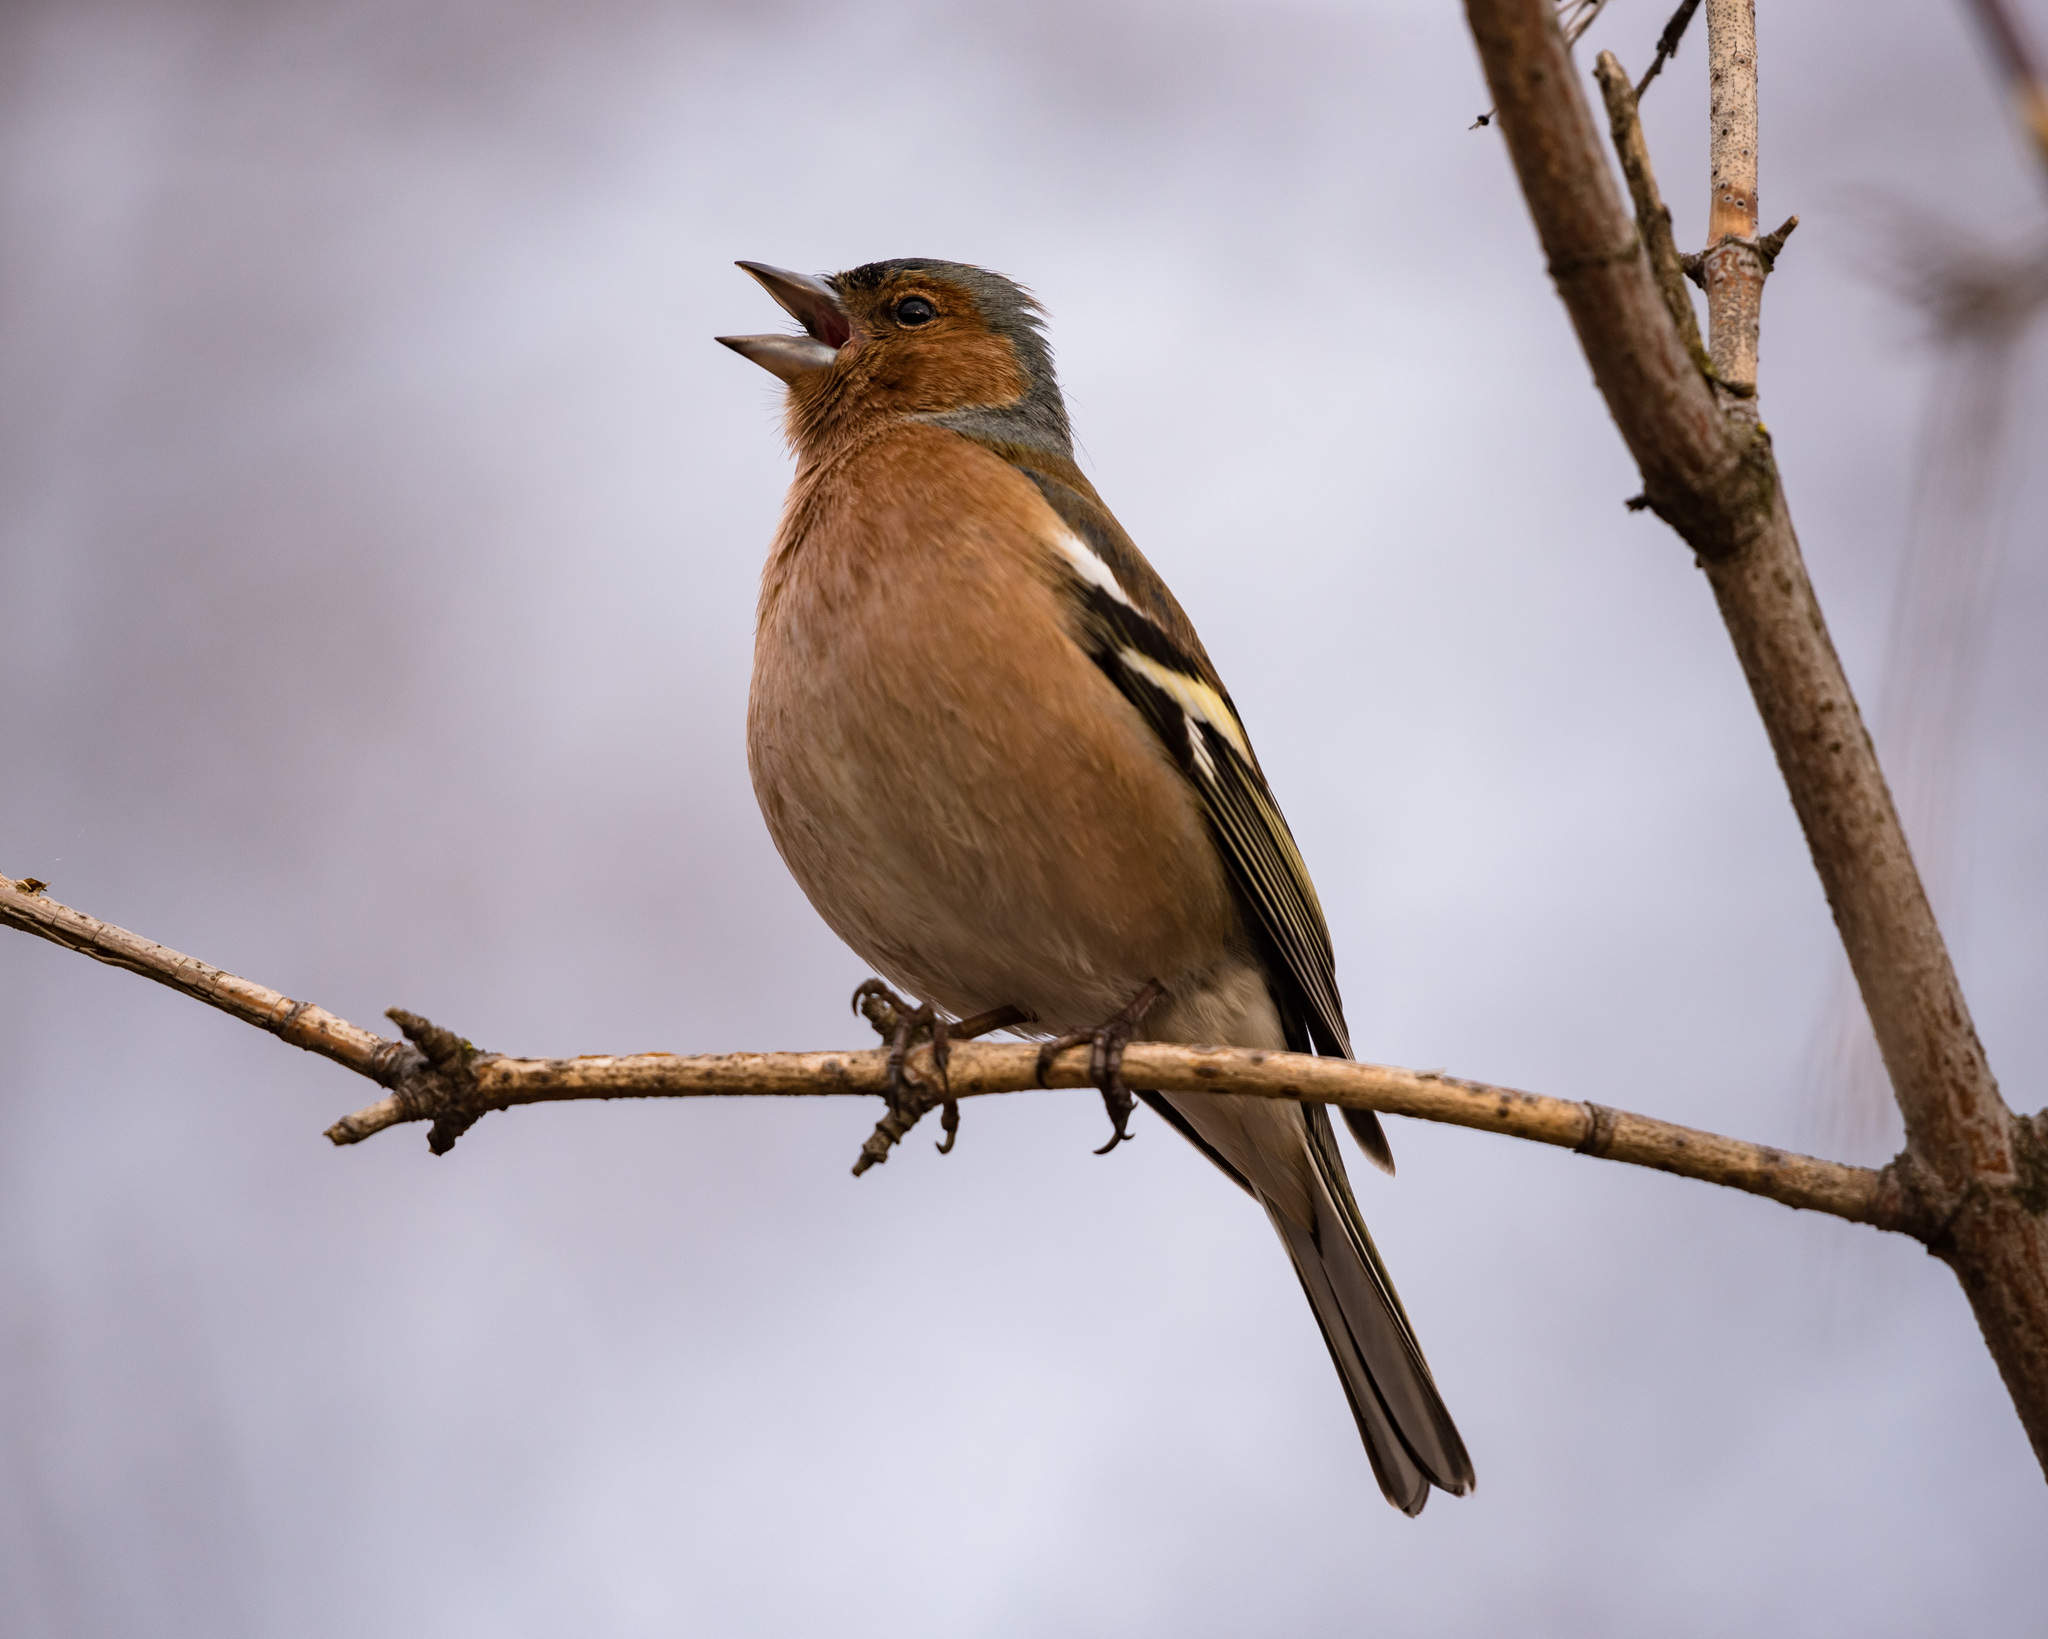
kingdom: Animalia
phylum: Chordata
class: Aves
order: Passeriformes
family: Fringillidae
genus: Fringilla
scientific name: Fringilla coelebs
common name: Common chaffinch
